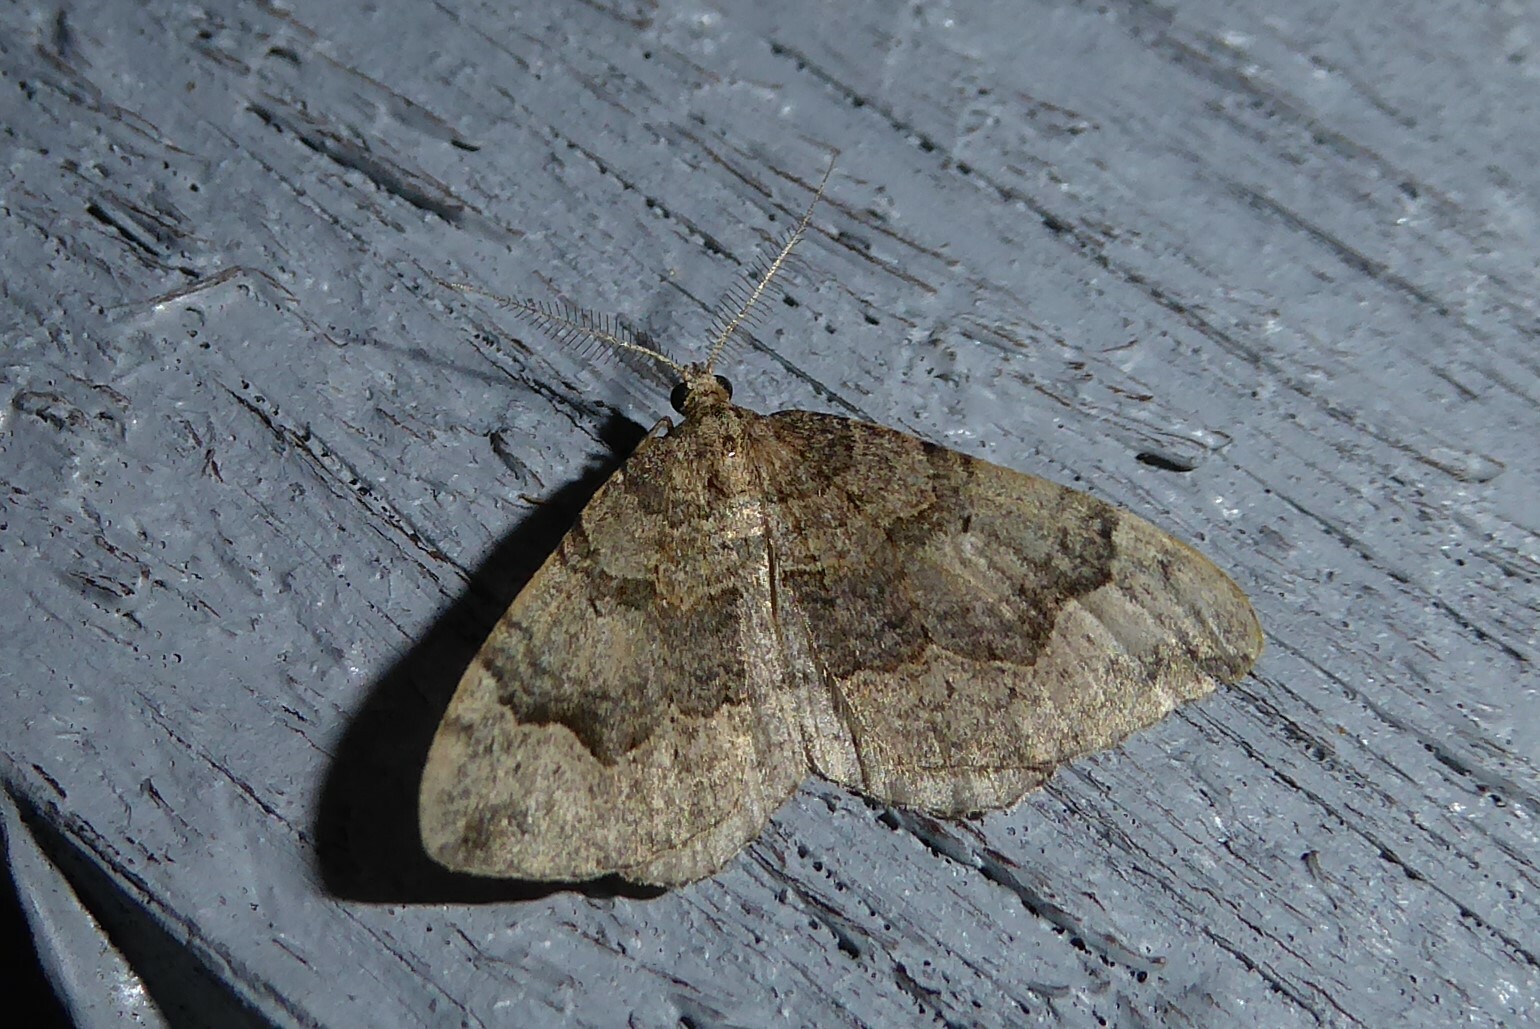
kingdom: Animalia
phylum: Arthropoda
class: Insecta
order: Lepidoptera
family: Geometridae
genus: Epyaxa
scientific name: Epyaxa rosearia
